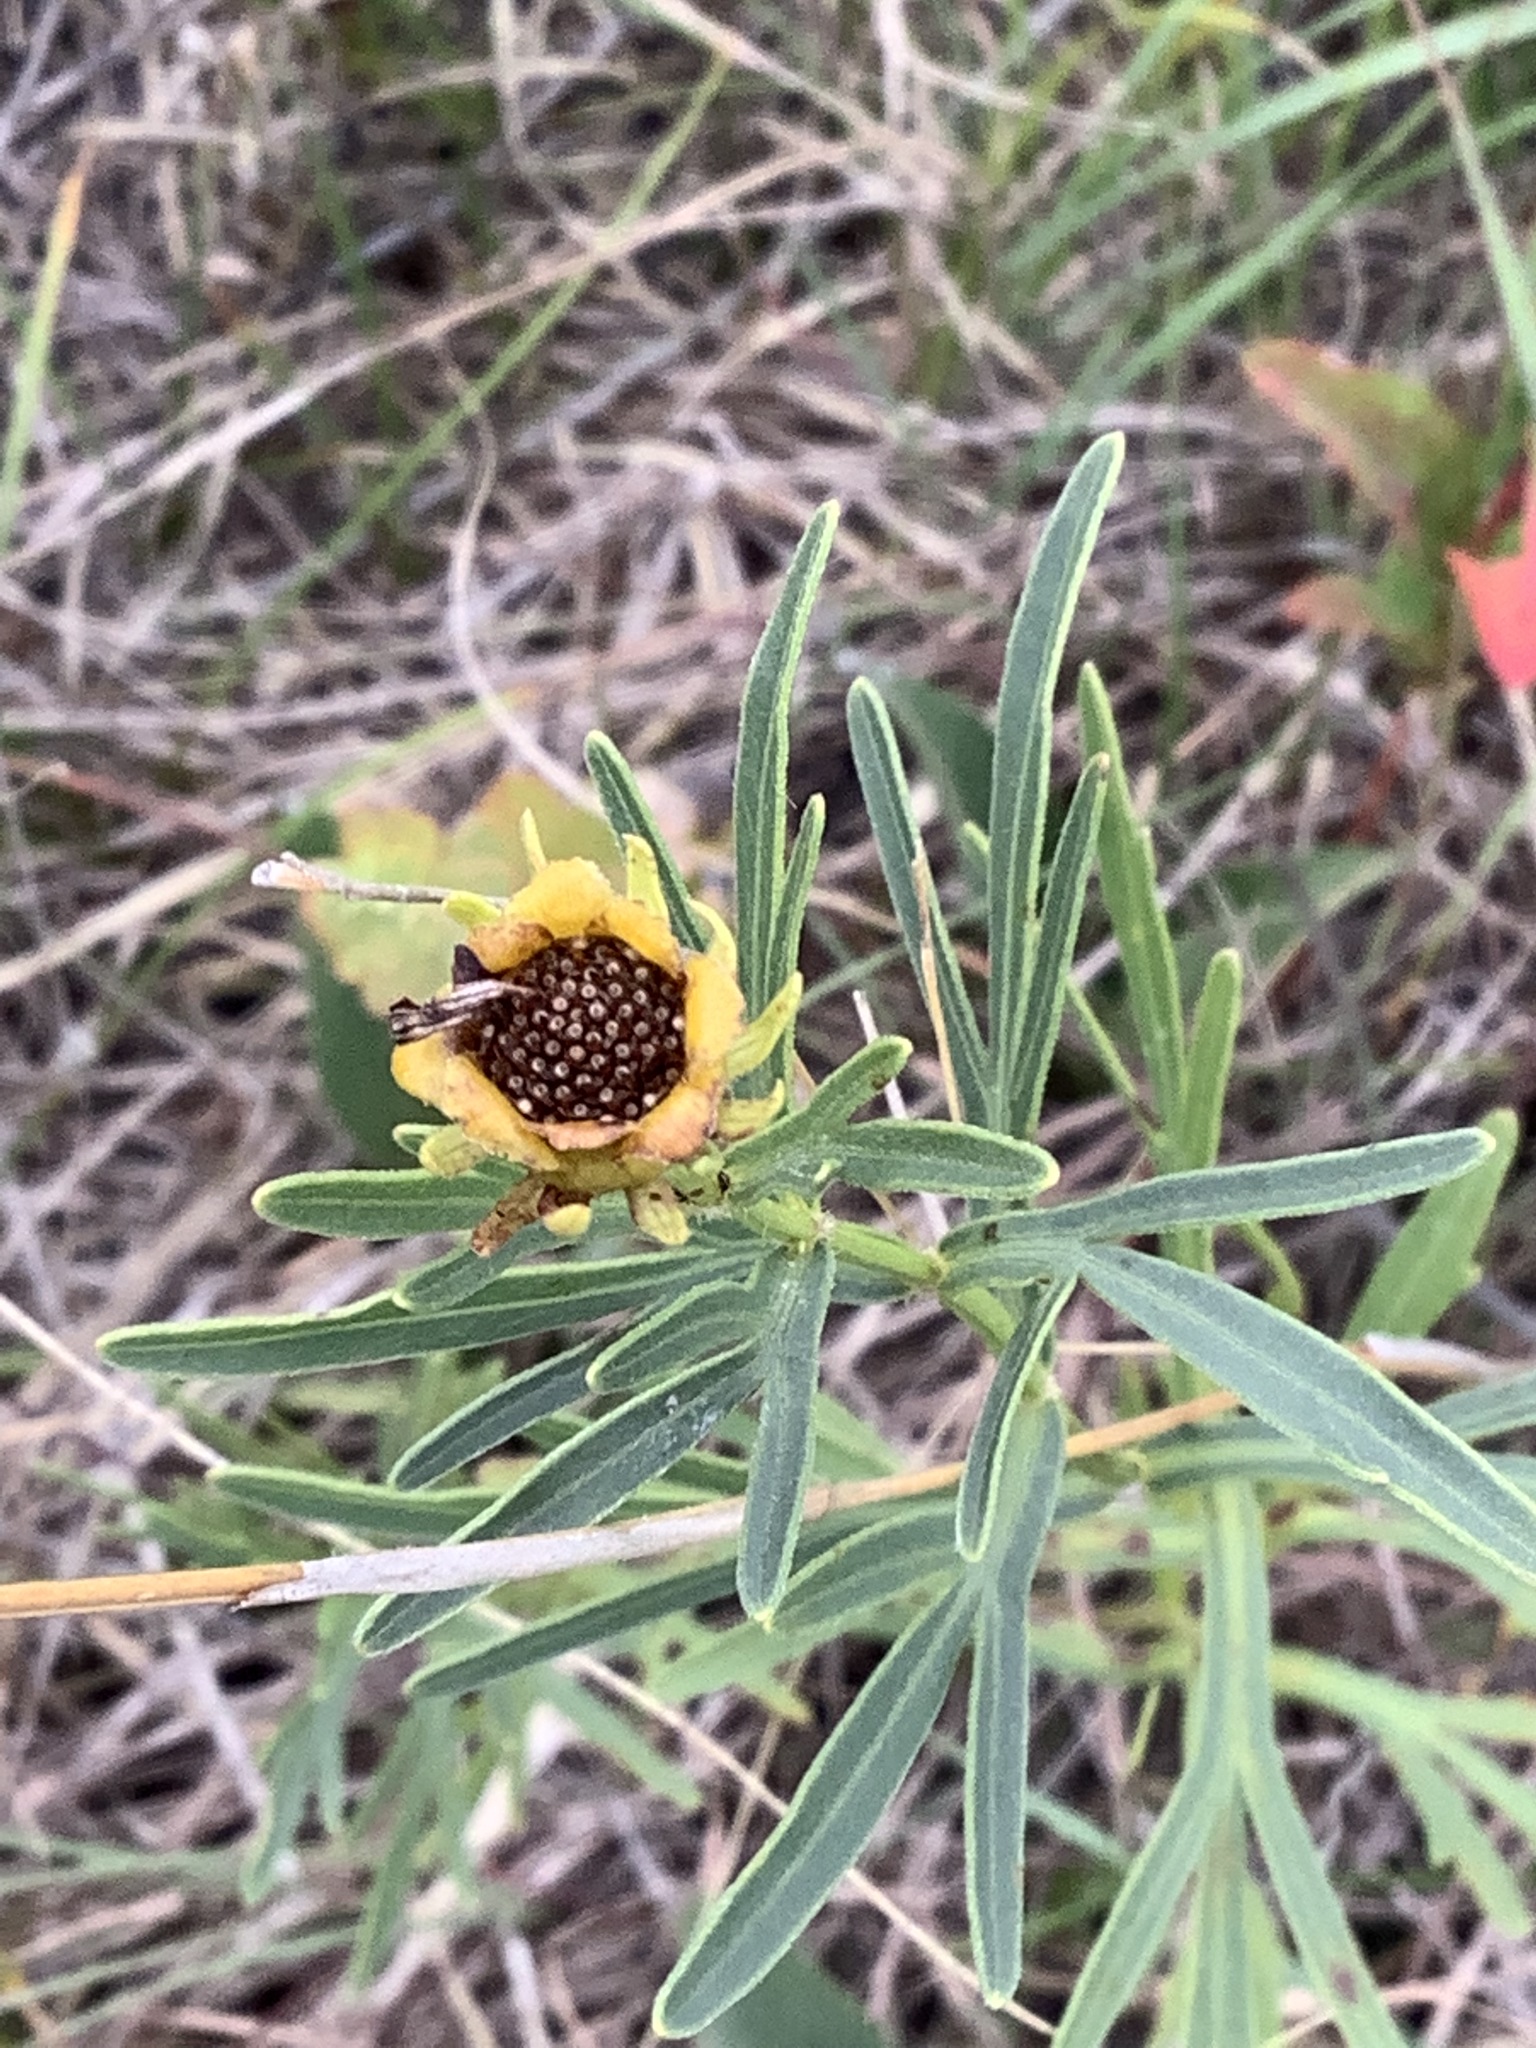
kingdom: Plantae
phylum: Tracheophyta
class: Magnoliopsida
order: Asterales
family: Asteraceae
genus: Coreopsis
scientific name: Coreopsis palmata
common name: Prairie coreopsis
